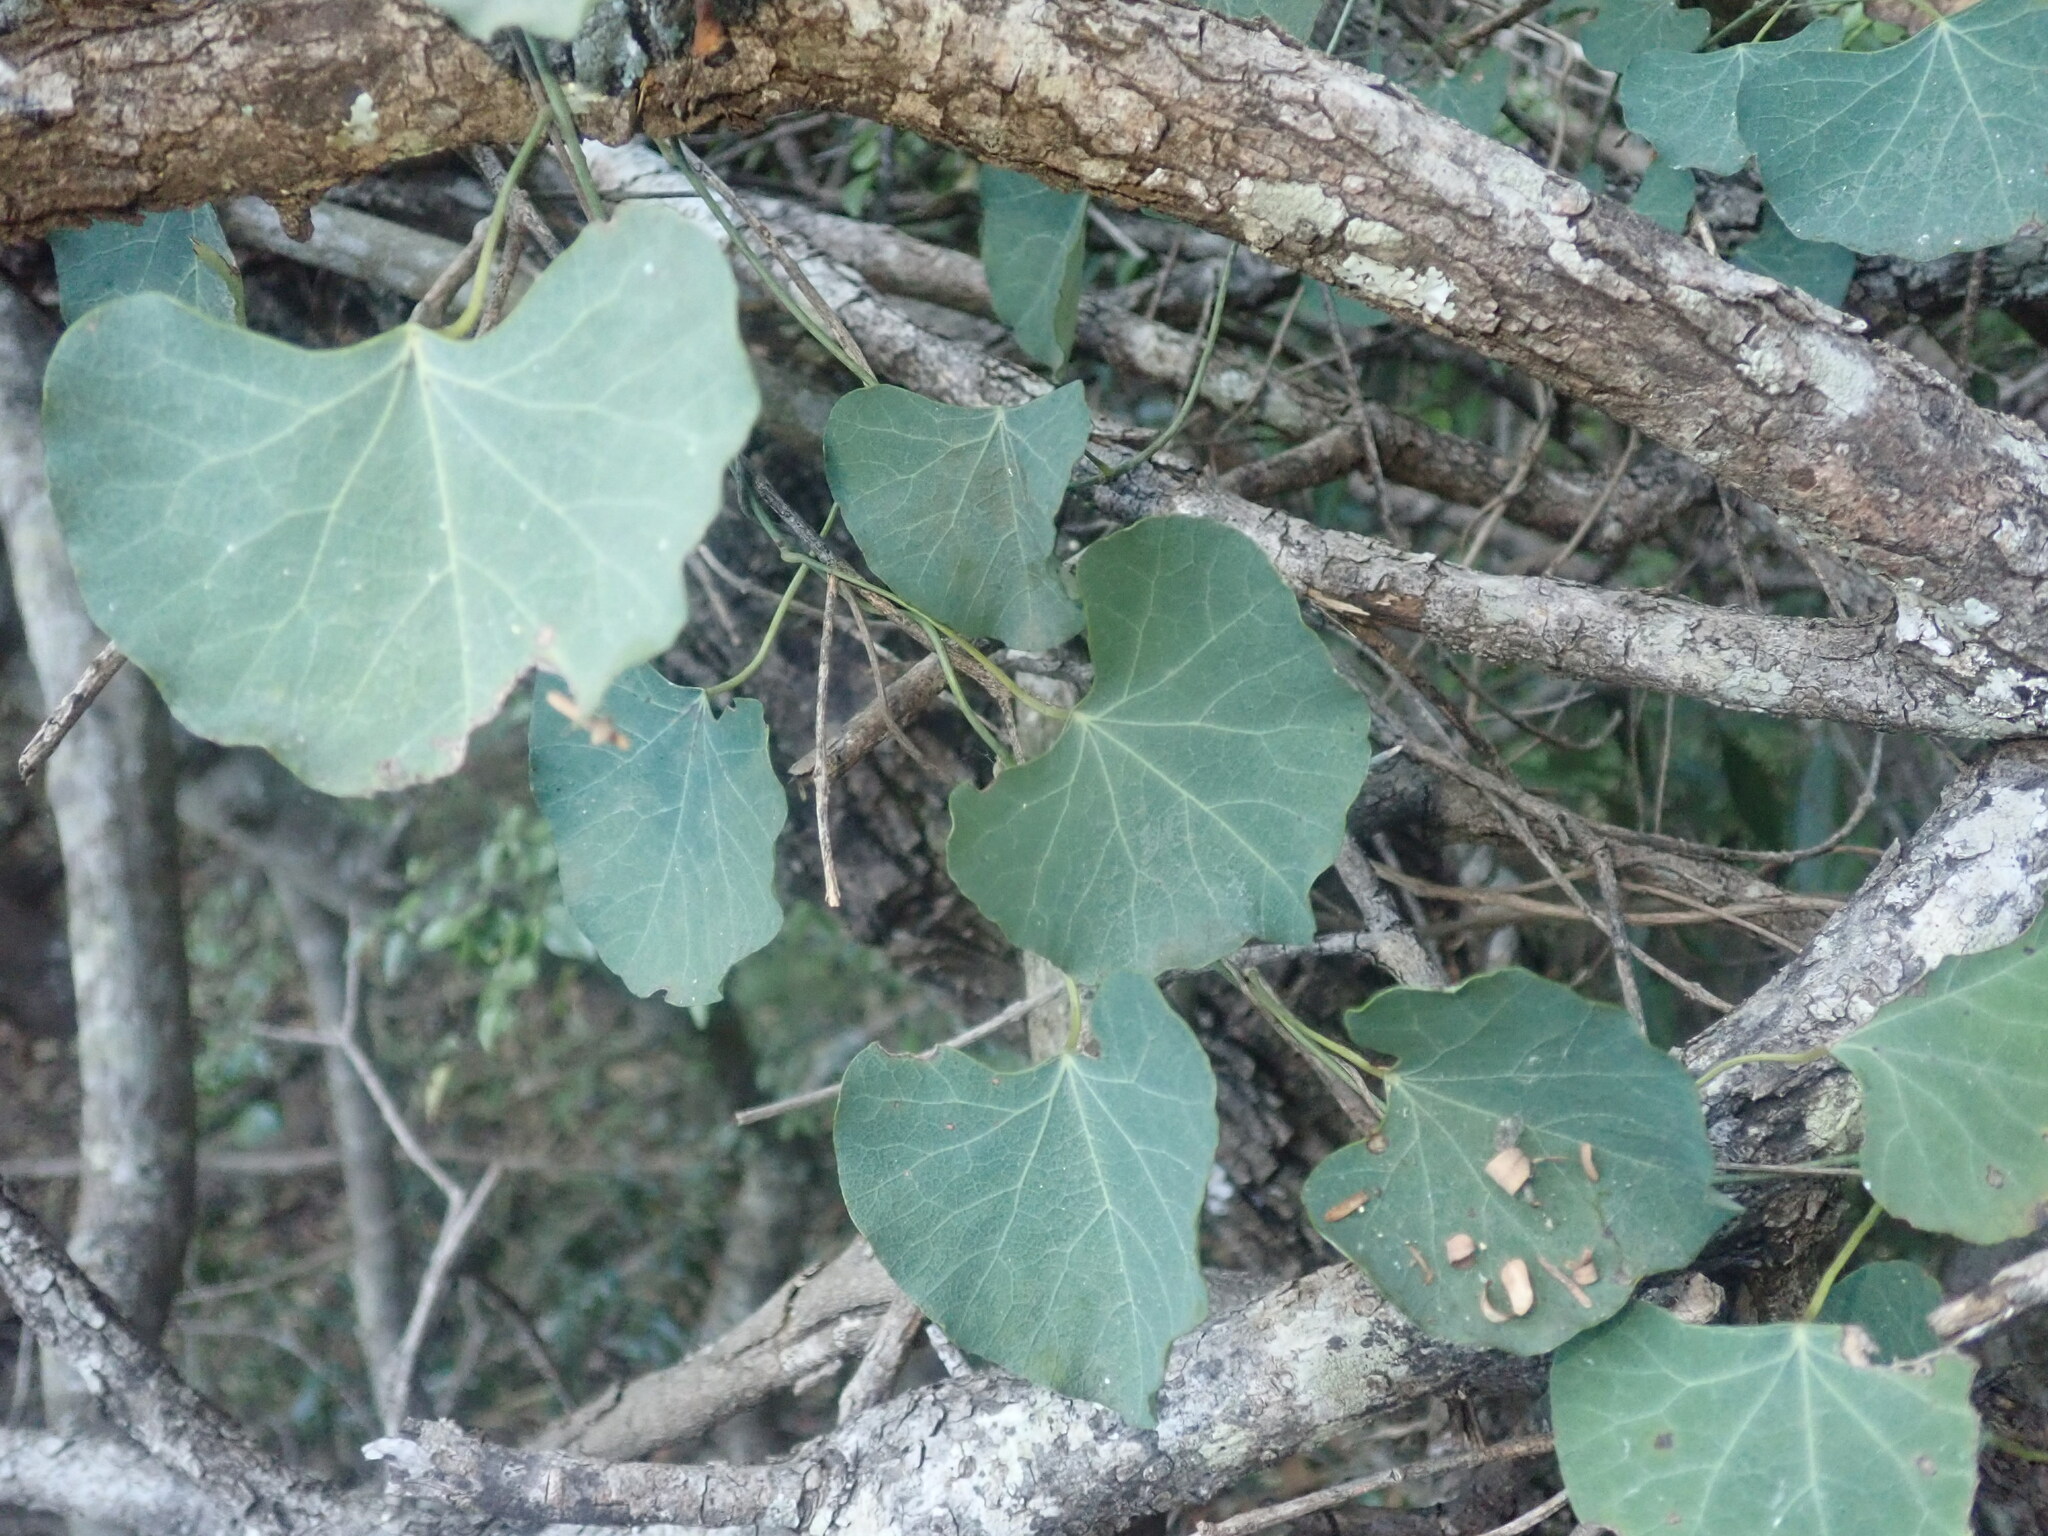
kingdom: Plantae
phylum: Tracheophyta
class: Magnoliopsida
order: Vitales
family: Vitaceae
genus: Rhoicissus
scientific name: Rhoicissus tomentosa
